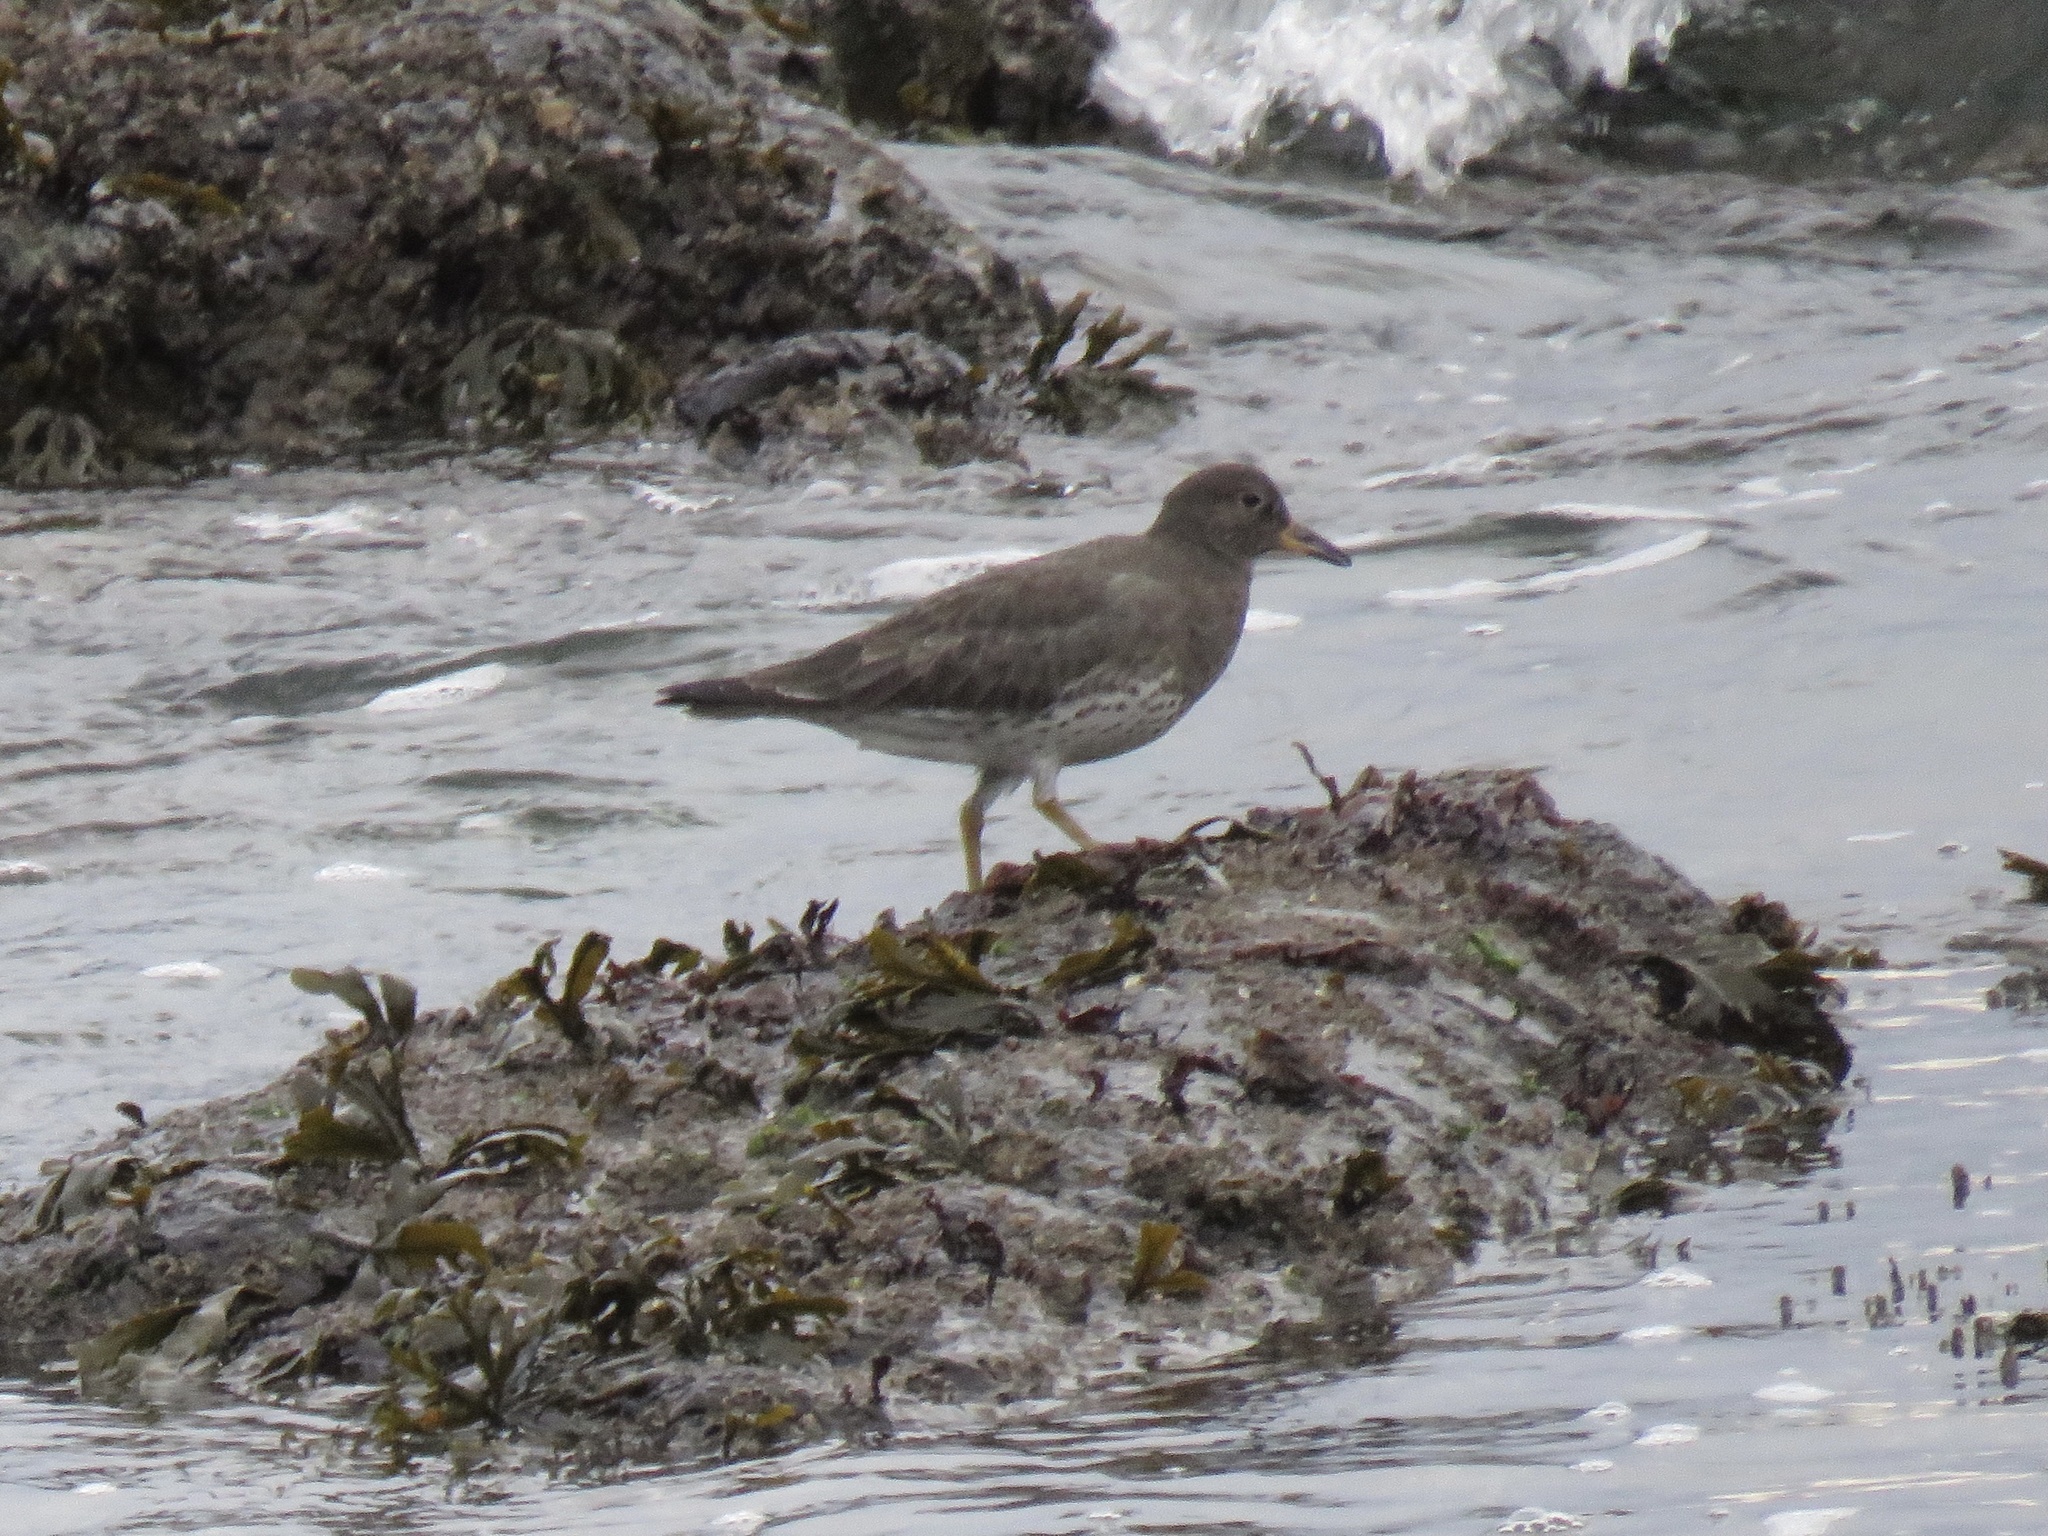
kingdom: Animalia
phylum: Chordata
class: Aves
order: Charadriiformes
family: Scolopacidae
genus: Calidris
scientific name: Calidris virgata
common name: Surfbird
